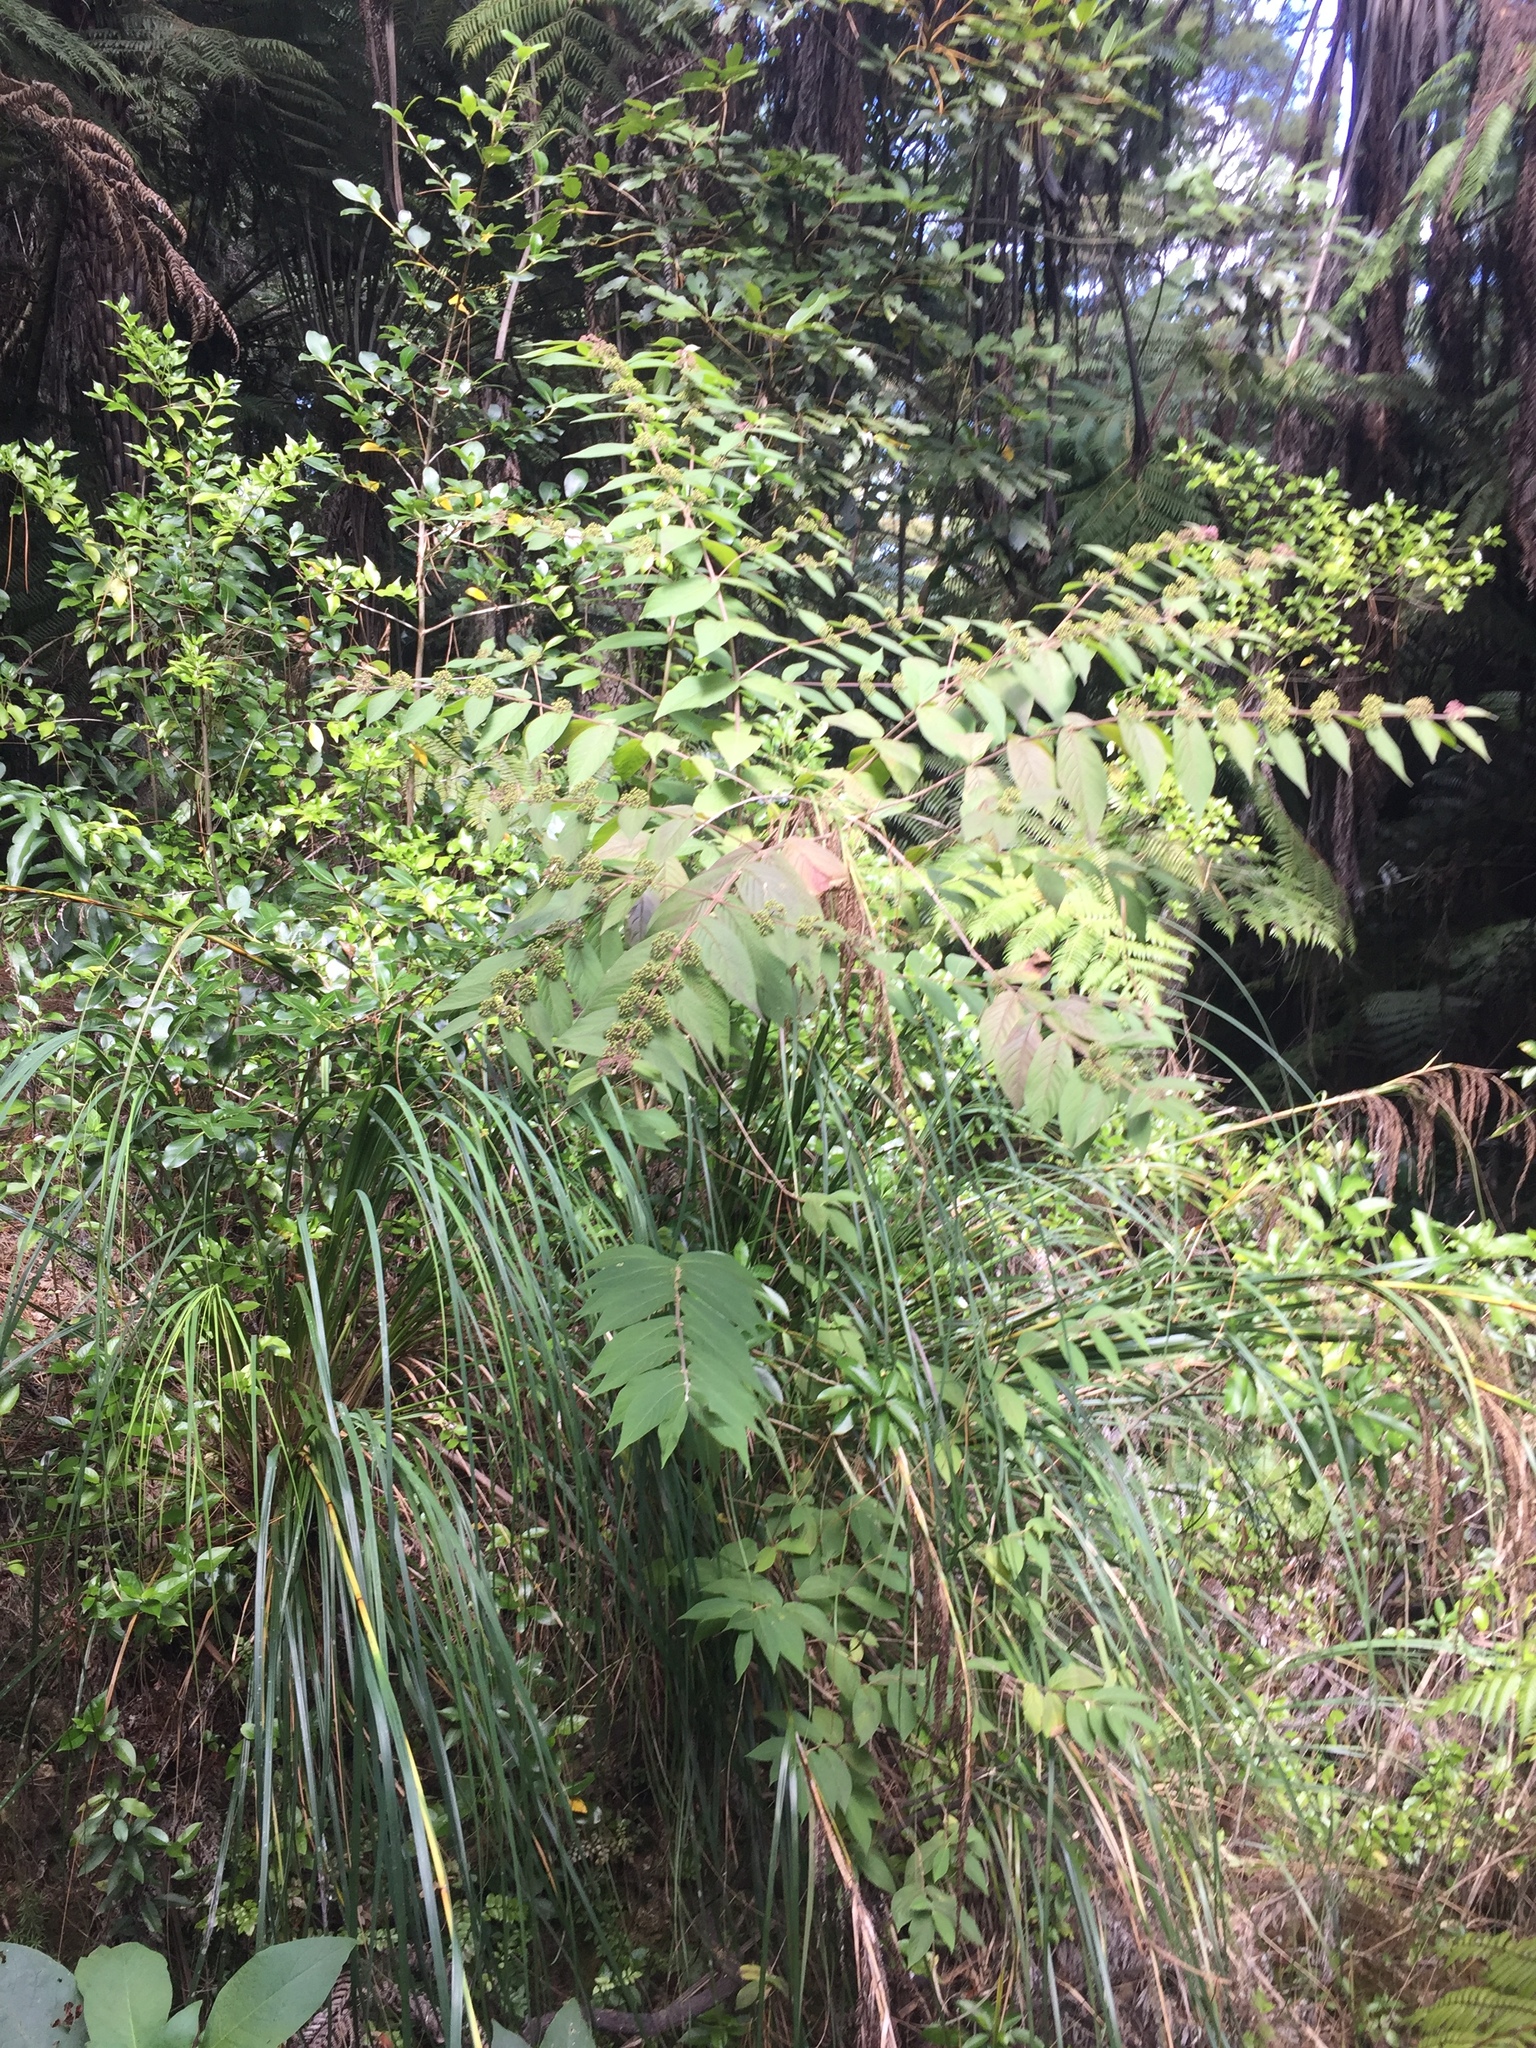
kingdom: Plantae
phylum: Tracheophyta
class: Magnoliopsida
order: Lamiales
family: Lamiaceae
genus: Callicarpa
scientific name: Callicarpa rubella
